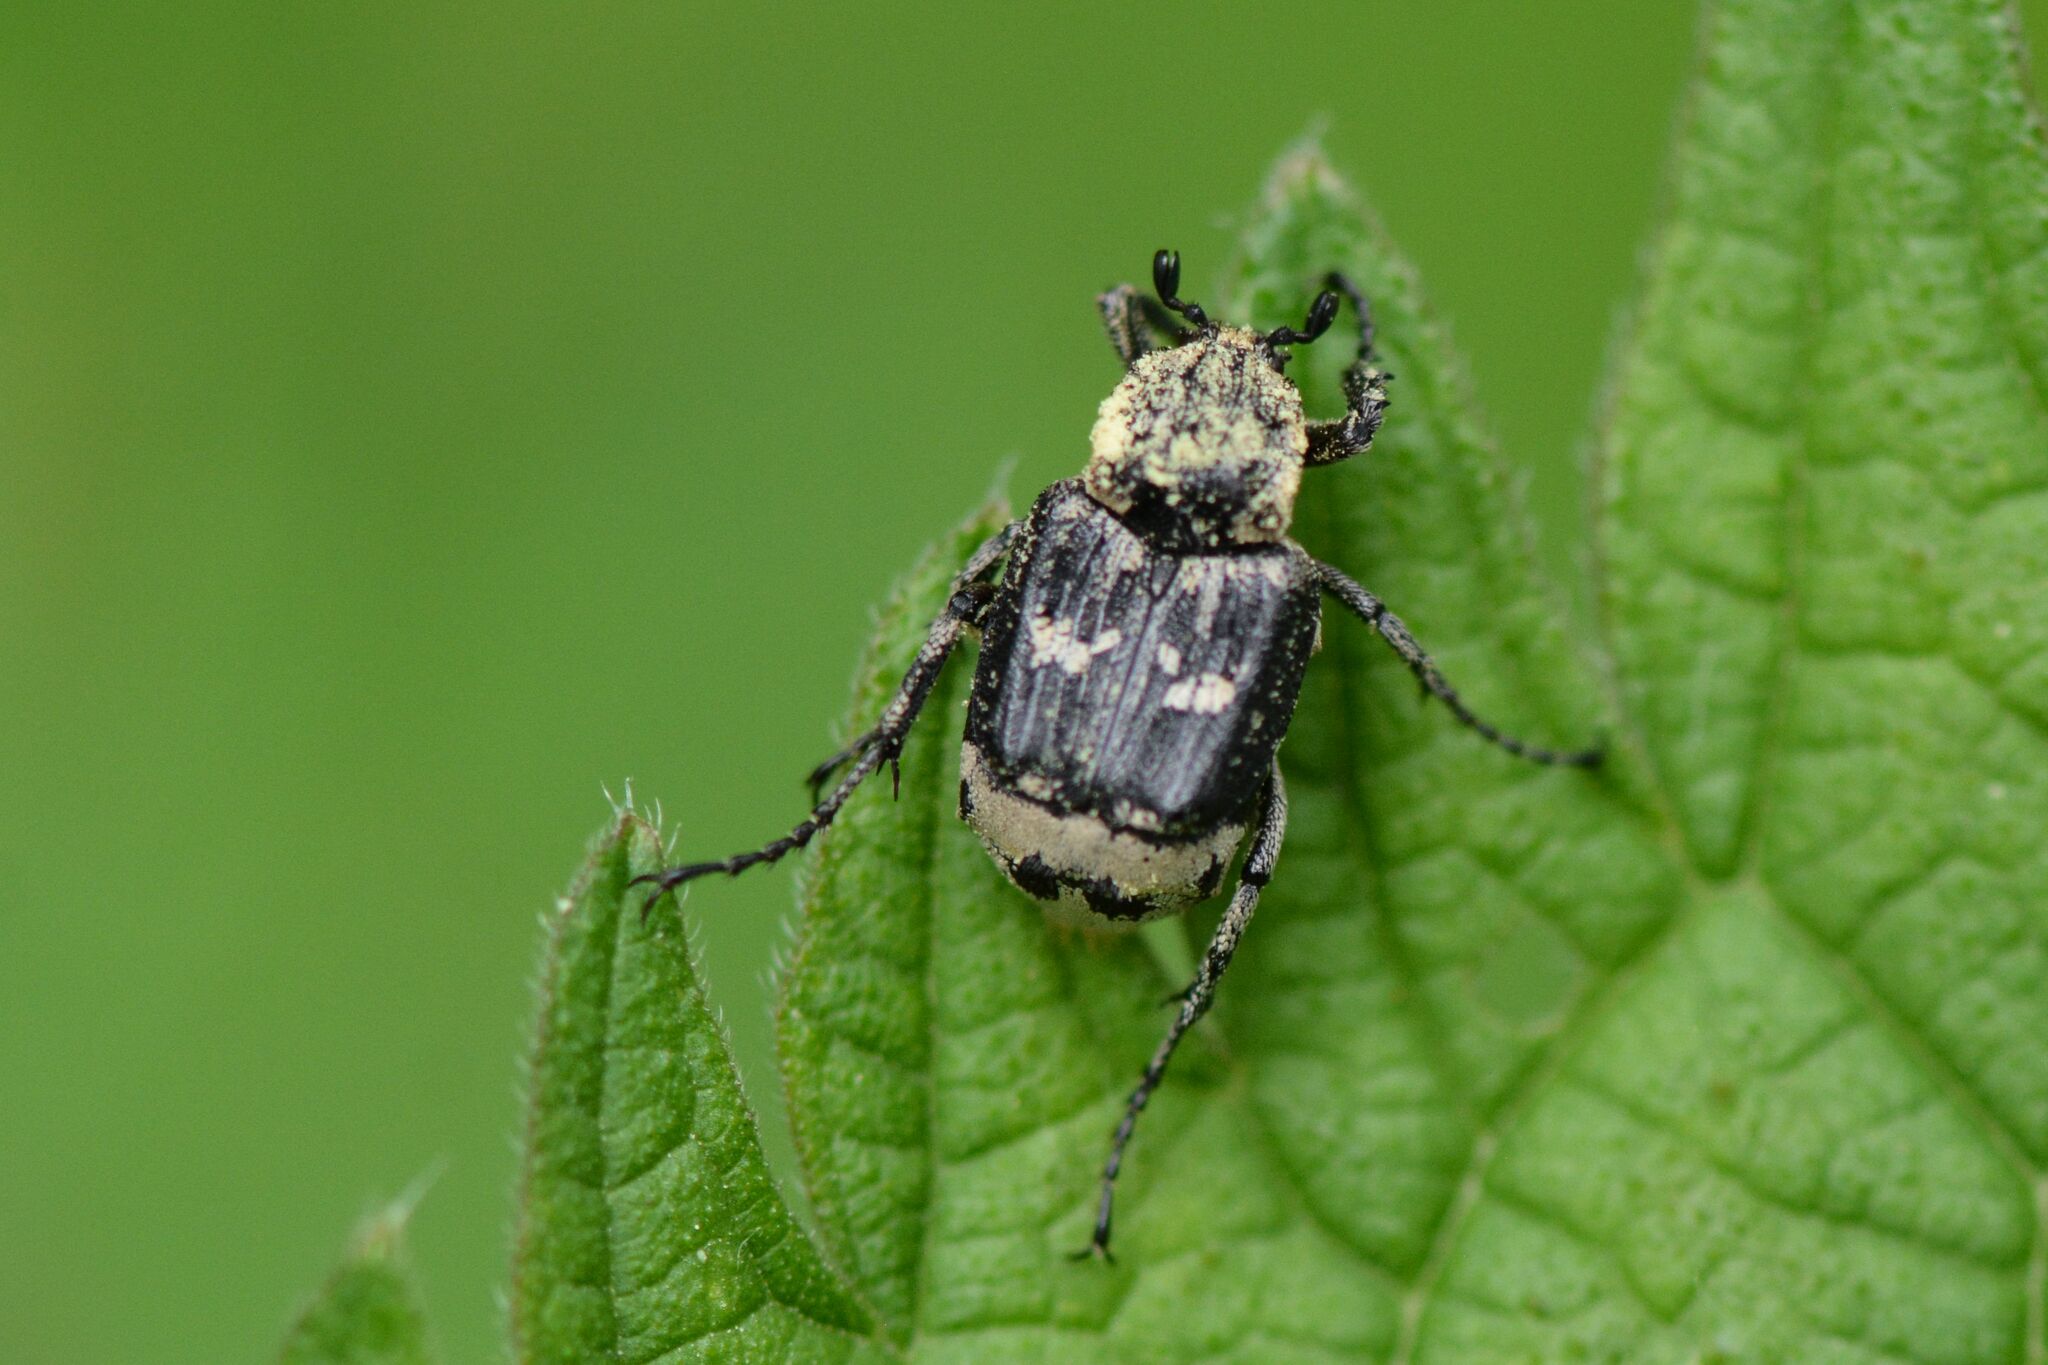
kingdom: Animalia
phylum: Arthropoda
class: Insecta
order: Coleoptera
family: Scarabaeidae
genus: Valgus
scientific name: Valgus hemipterus
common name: Bug flower chafer
